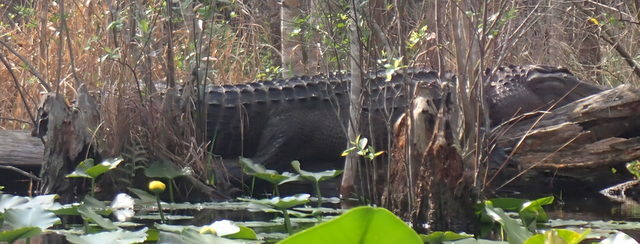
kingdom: Animalia
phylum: Chordata
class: Crocodylia
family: Alligatoridae
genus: Alligator
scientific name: Alligator mississippiensis
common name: American alligator
